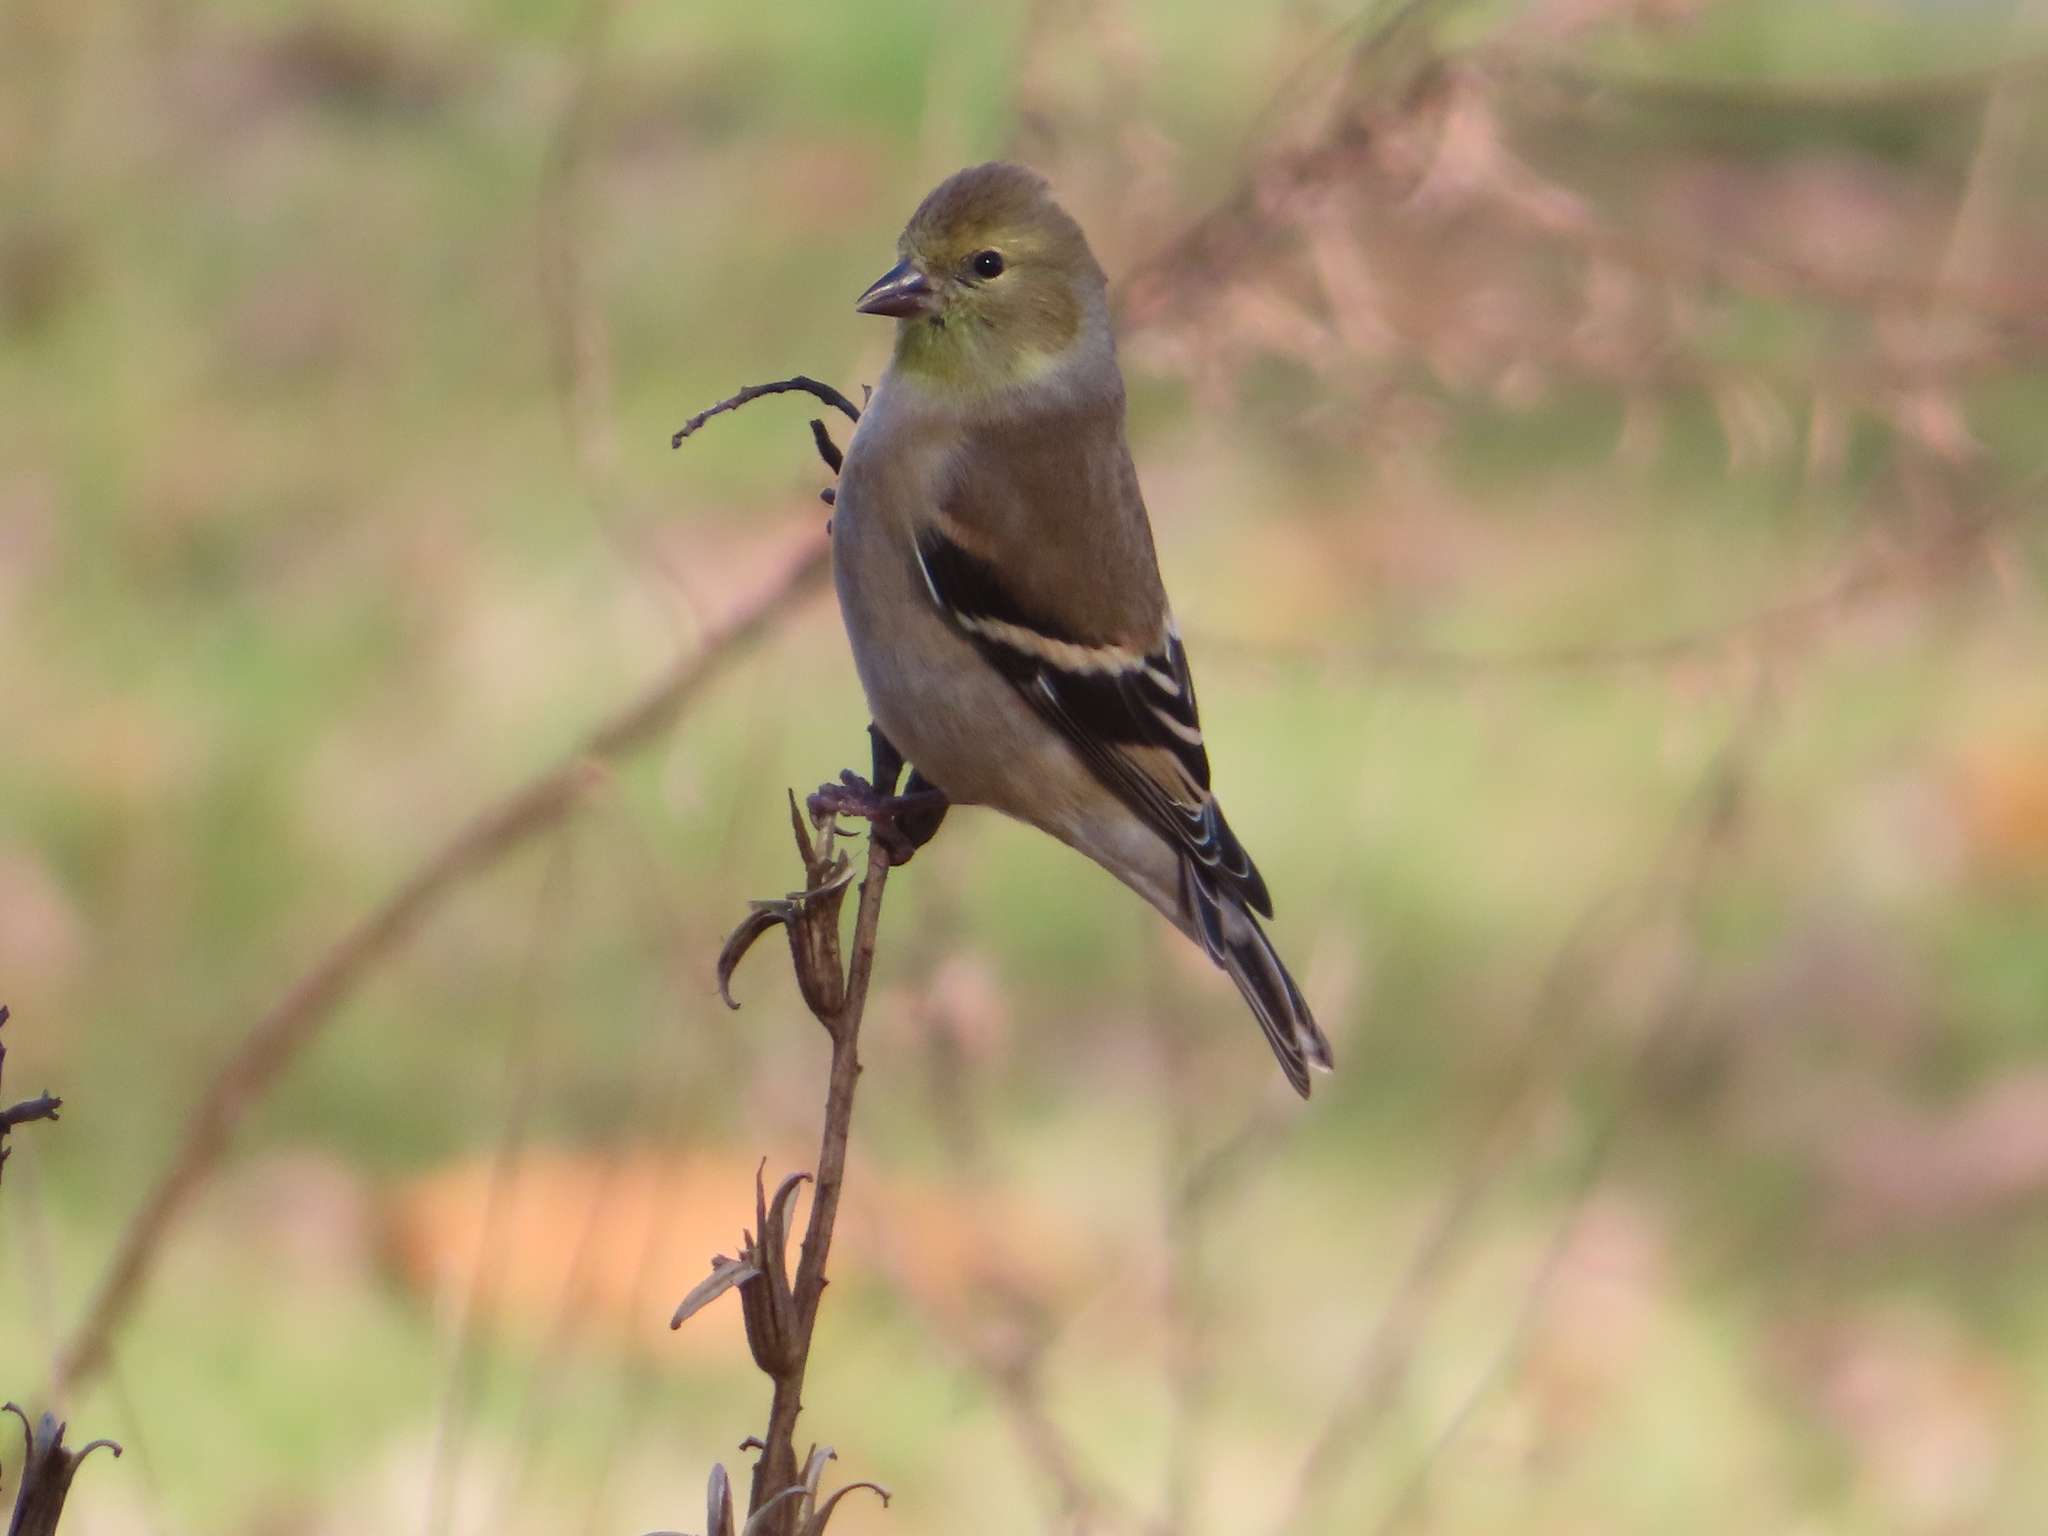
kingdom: Animalia
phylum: Chordata
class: Aves
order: Passeriformes
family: Fringillidae
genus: Spinus
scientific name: Spinus tristis
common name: American goldfinch
